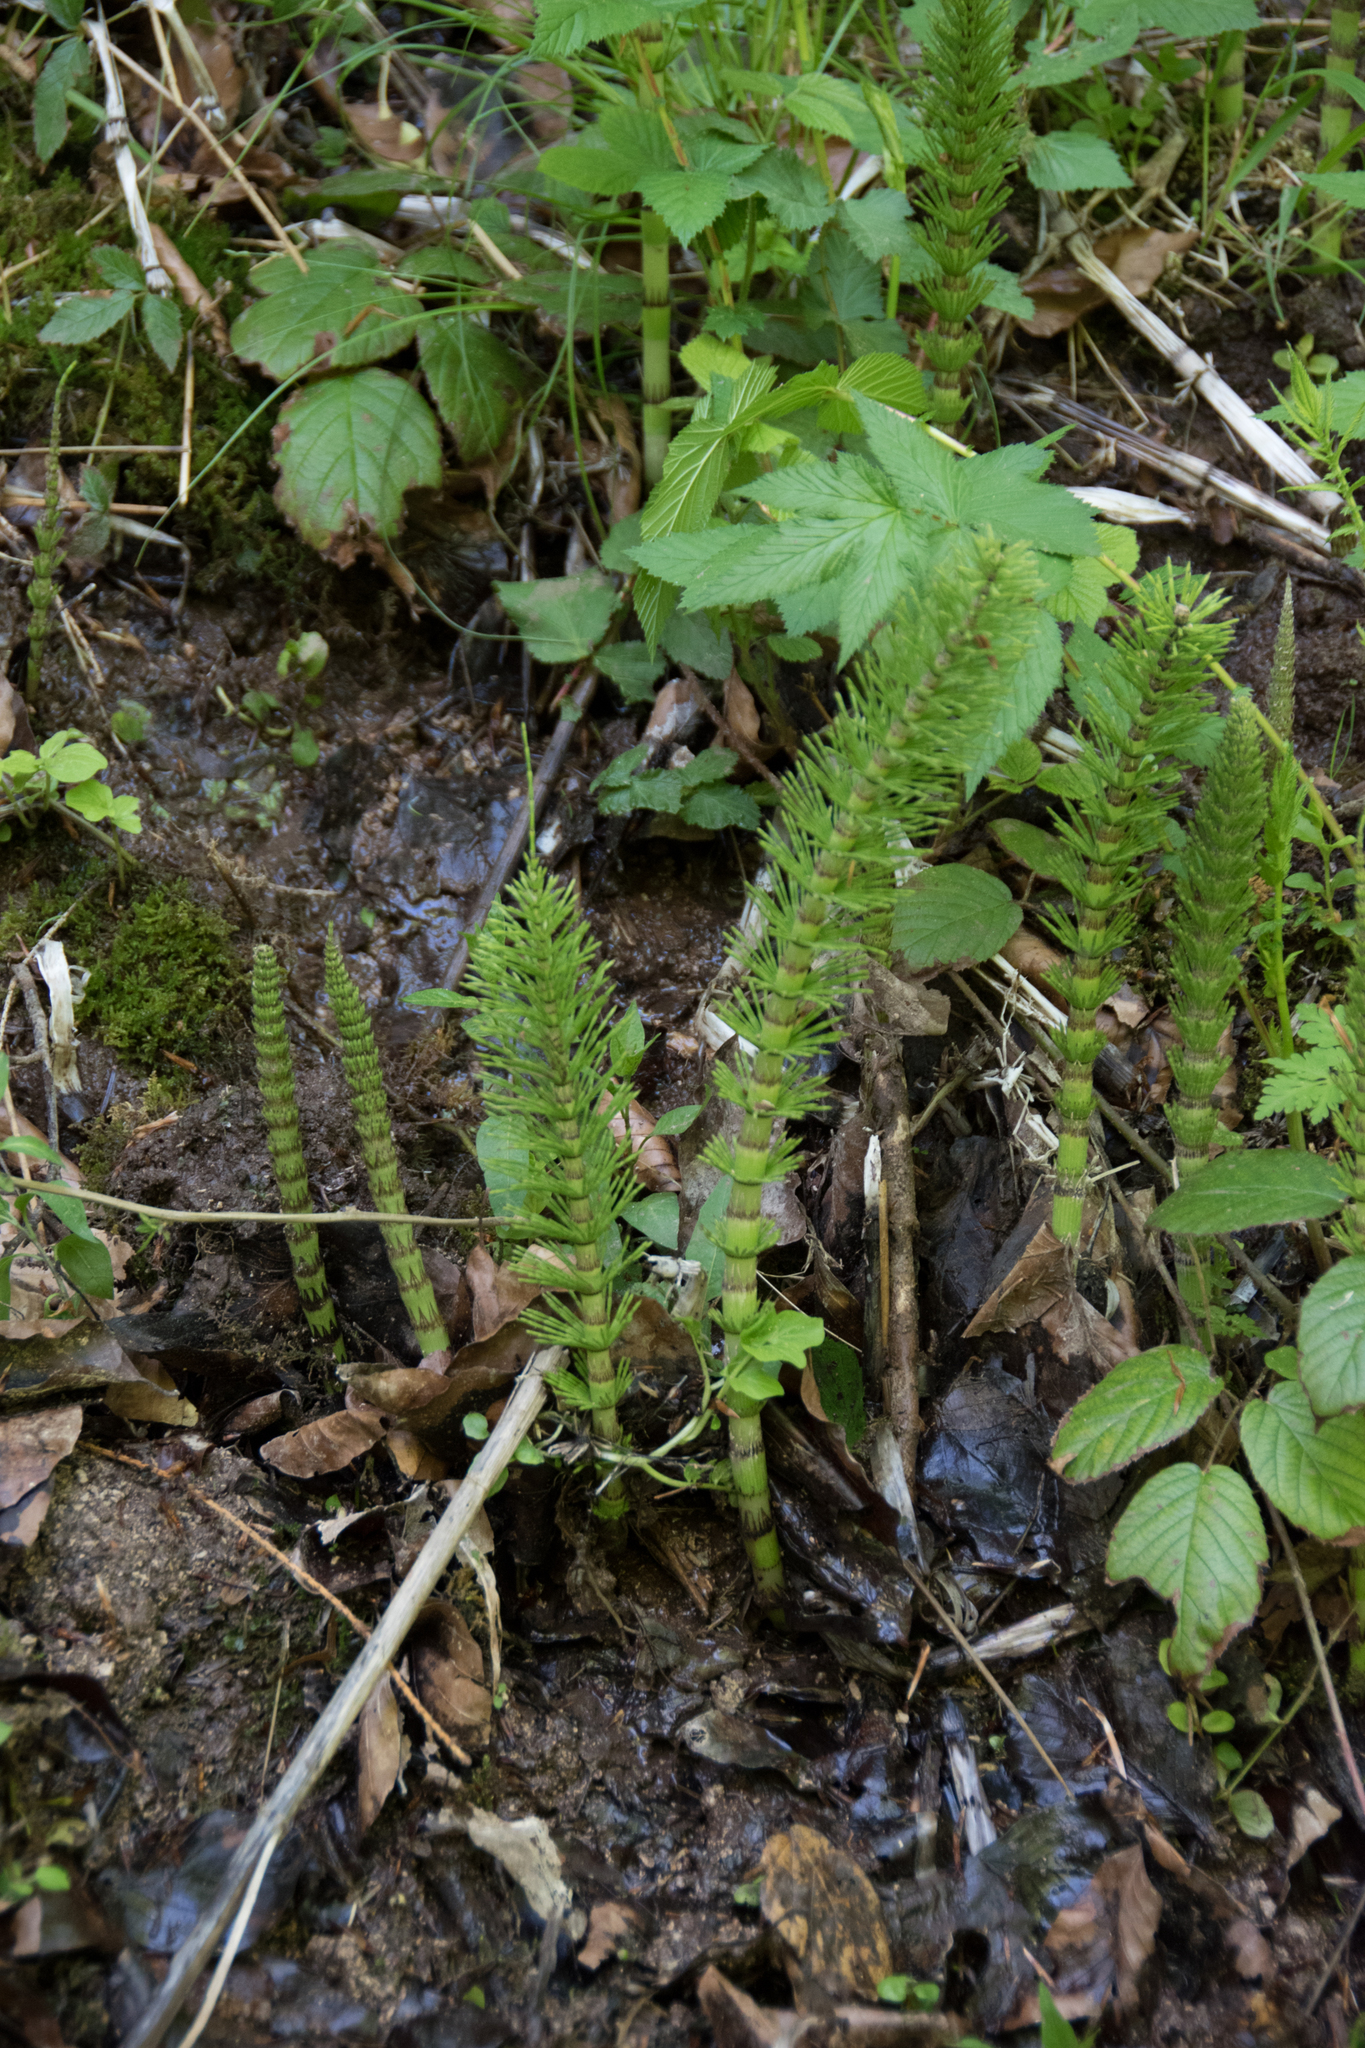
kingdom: Plantae
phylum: Tracheophyta
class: Polypodiopsida
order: Equisetales
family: Equisetaceae
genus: Equisetum
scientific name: Equisetum telmateia
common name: Great horsetail
